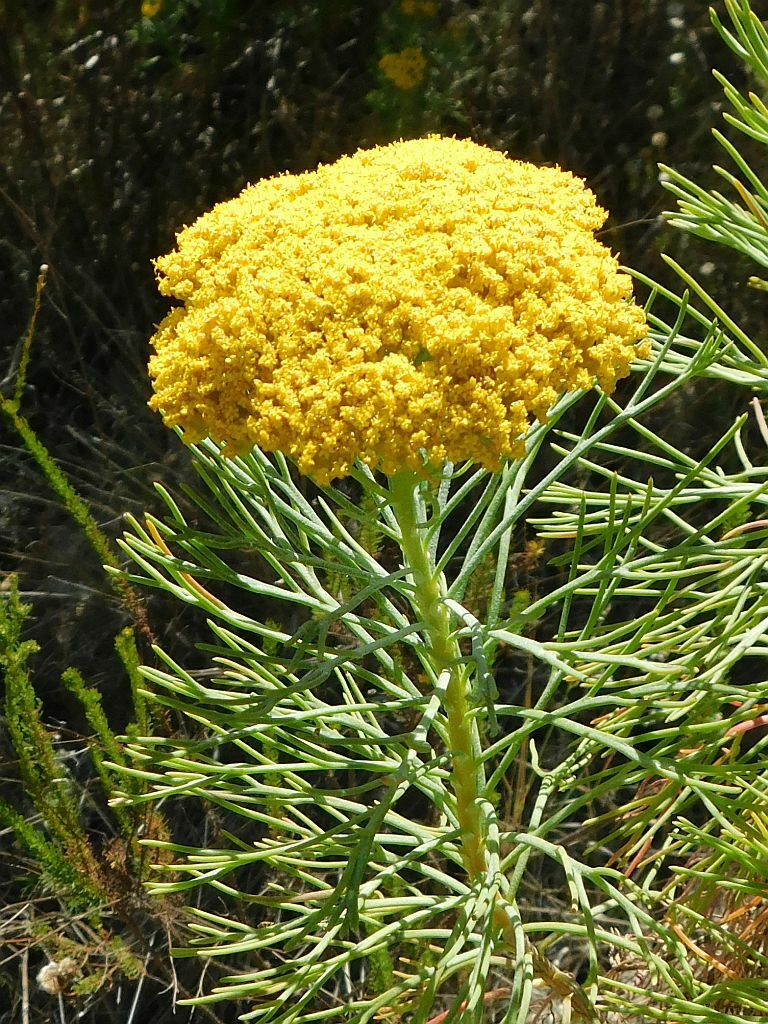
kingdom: Plantae
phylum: Tracheophyta
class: Magnoliopsida
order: Asterales
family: Asteraceae
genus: Hymenolepis
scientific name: Hymenolepis crithmifolia
